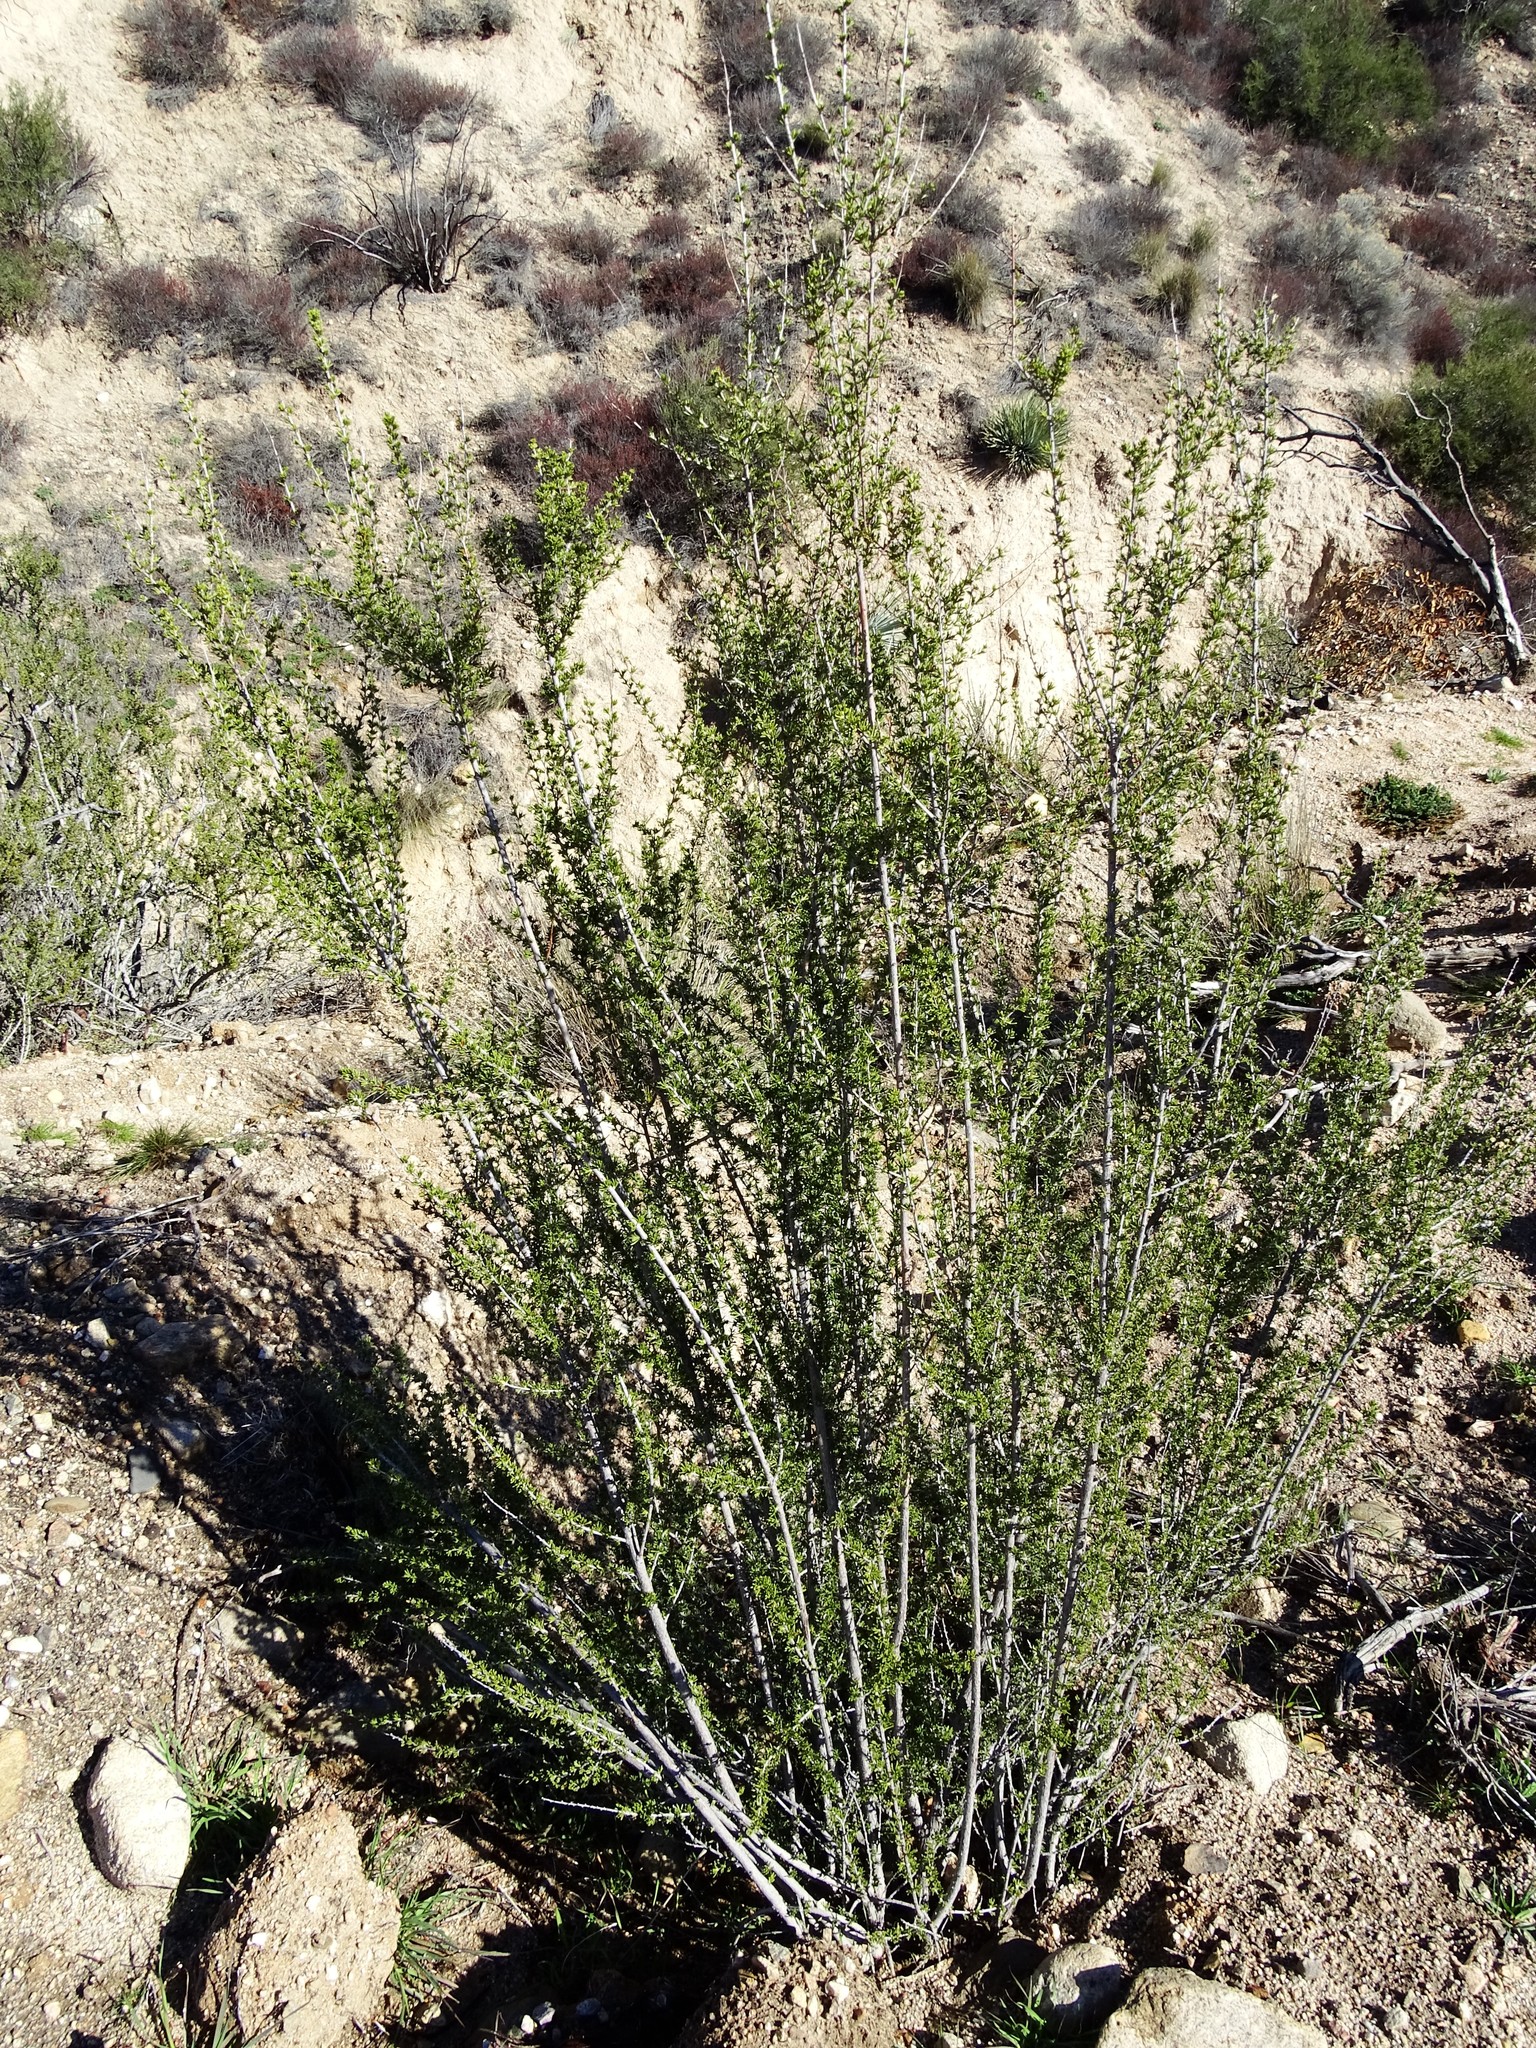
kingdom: Plantae
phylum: Tracheophyta
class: Magnoliopsida
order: Rosales
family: Rosaceae
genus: Adenostoma
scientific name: Adenostoma fasciculatum
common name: Chamise
